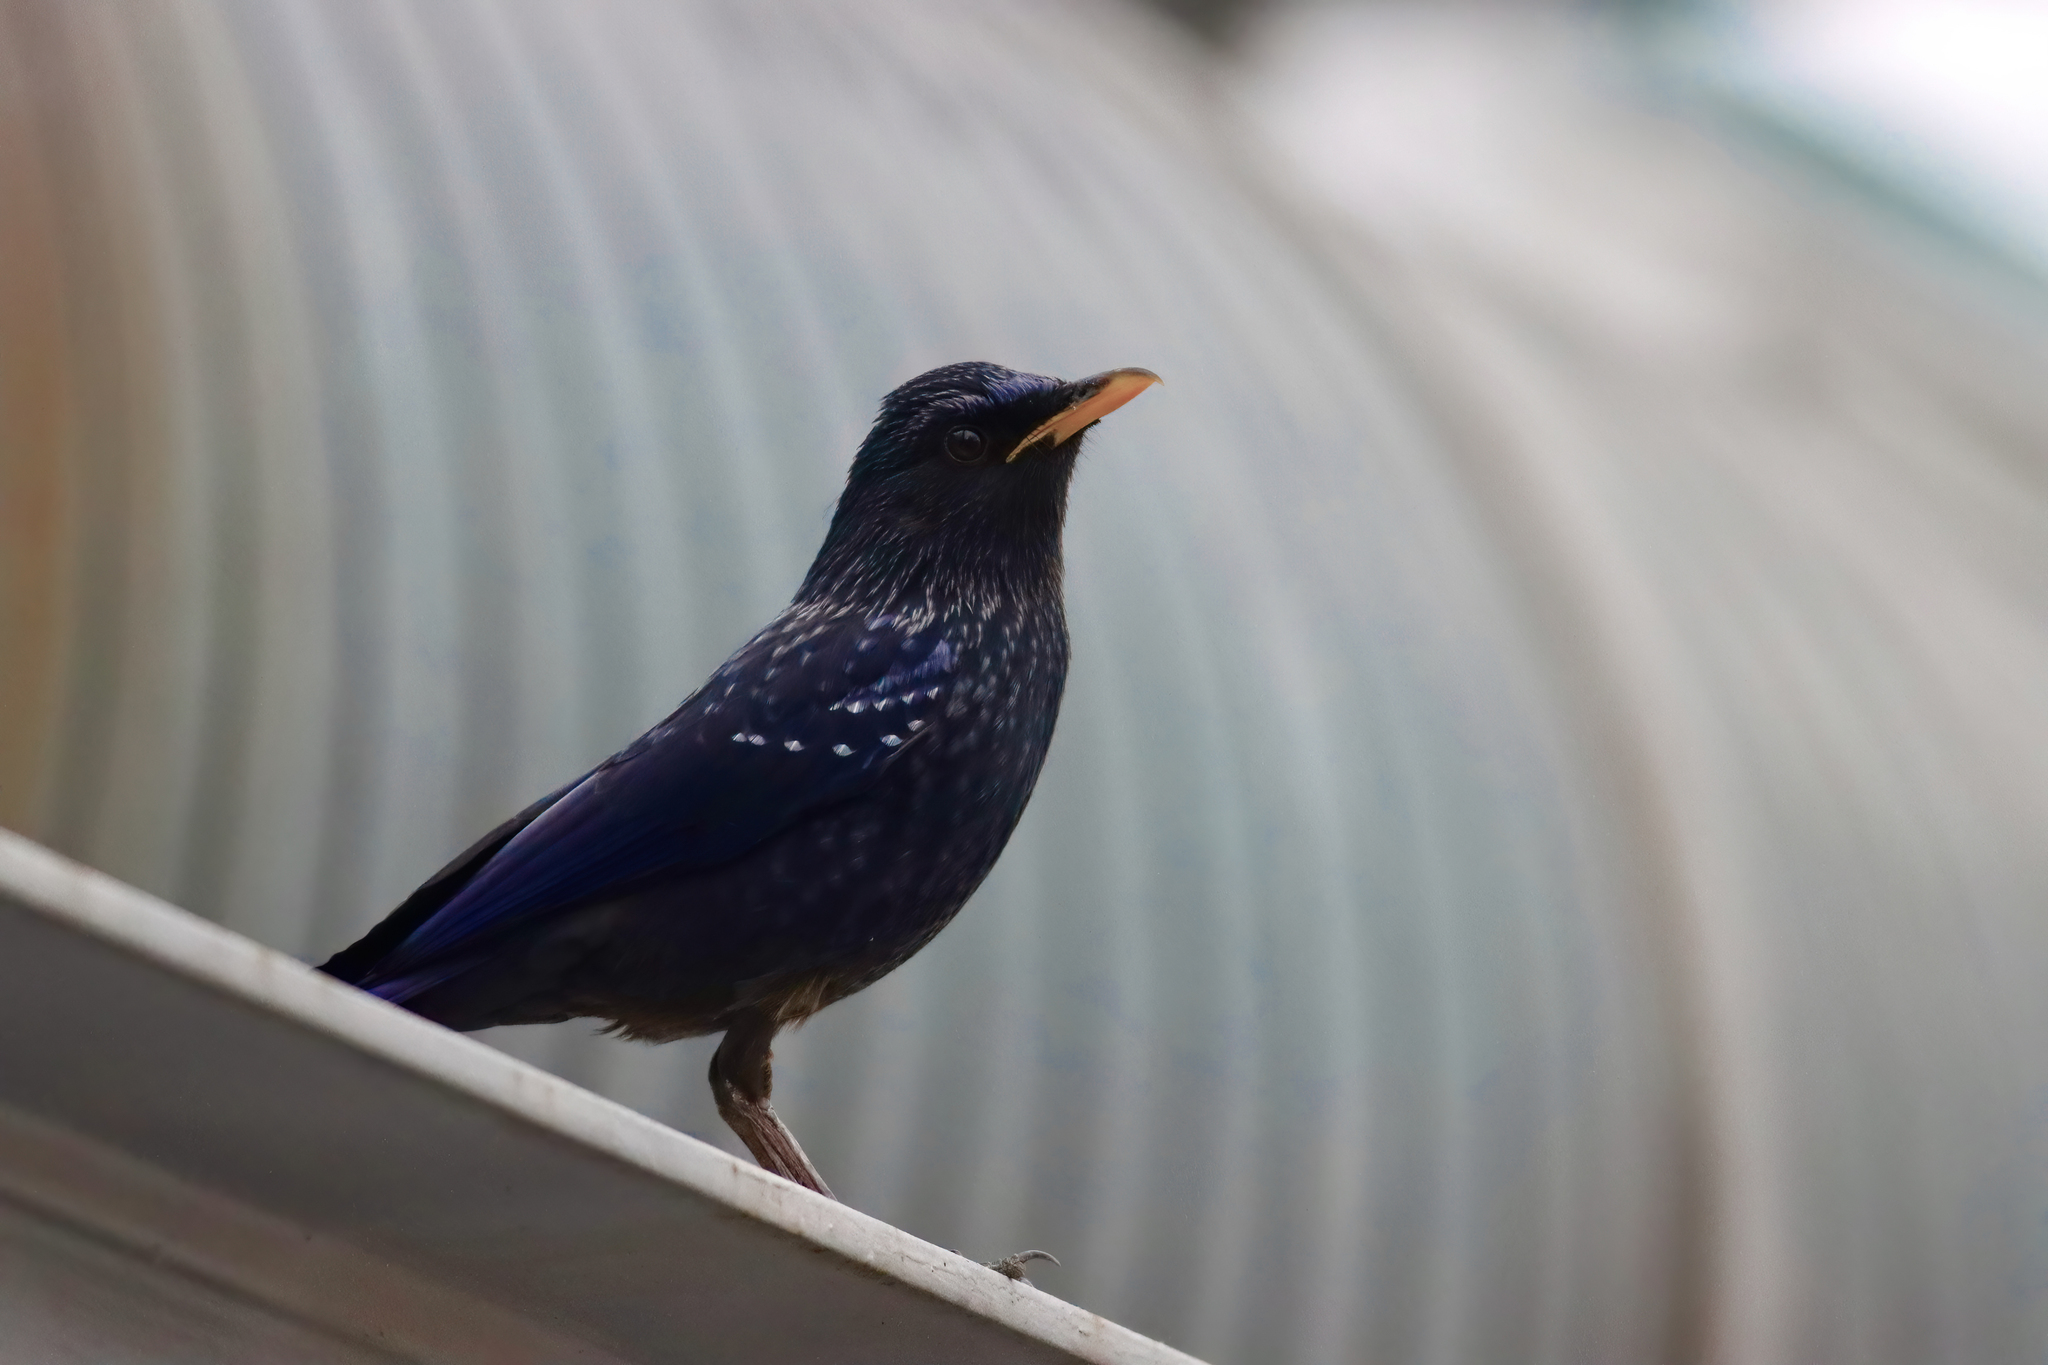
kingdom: Animalia
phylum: Chordata
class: Aves
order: Passeriformes
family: Muscicapidae
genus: Myophonus
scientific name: Myophonus caeruleus
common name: Blue whistling-thrush
